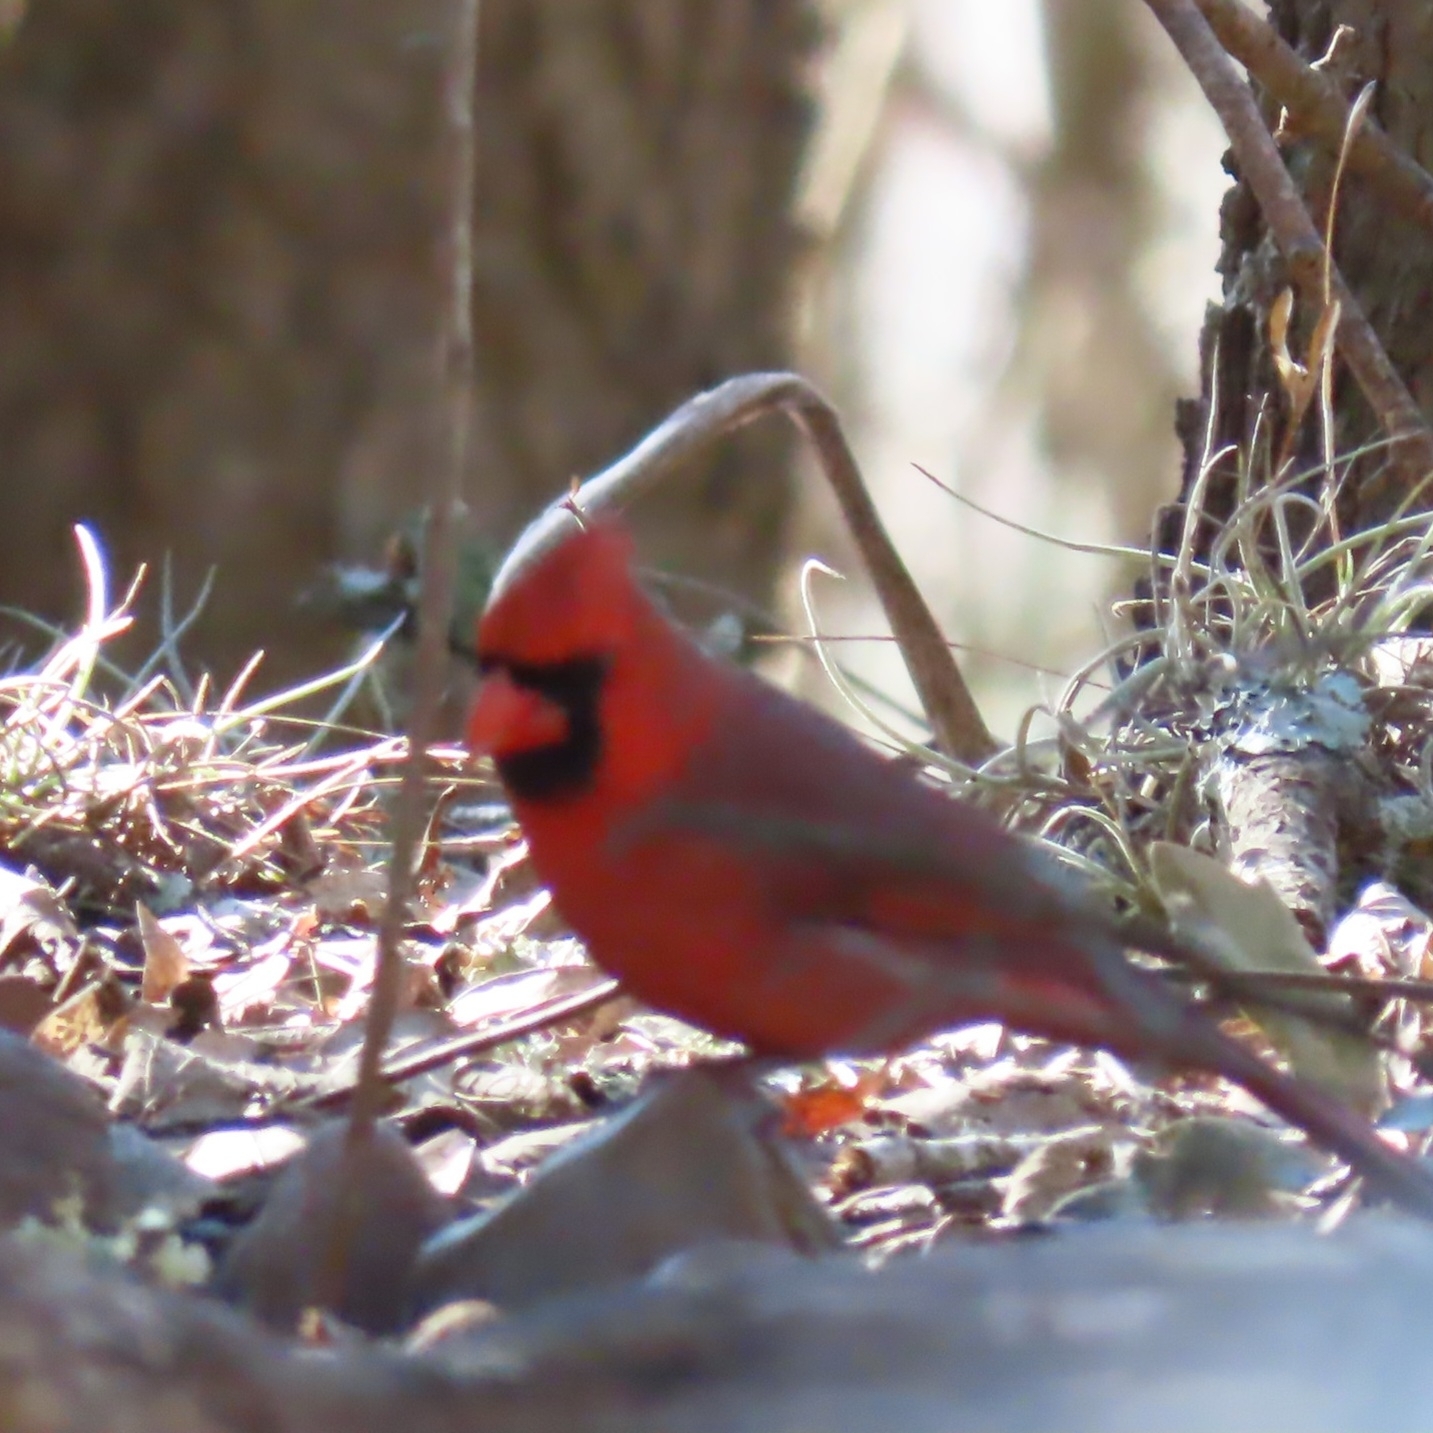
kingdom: Animalia
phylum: Chordata
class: Aves
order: Passeriformes
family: Cardinalidae
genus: Cardinalis
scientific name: Cardinalis cardinalis
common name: Northern cardinal
